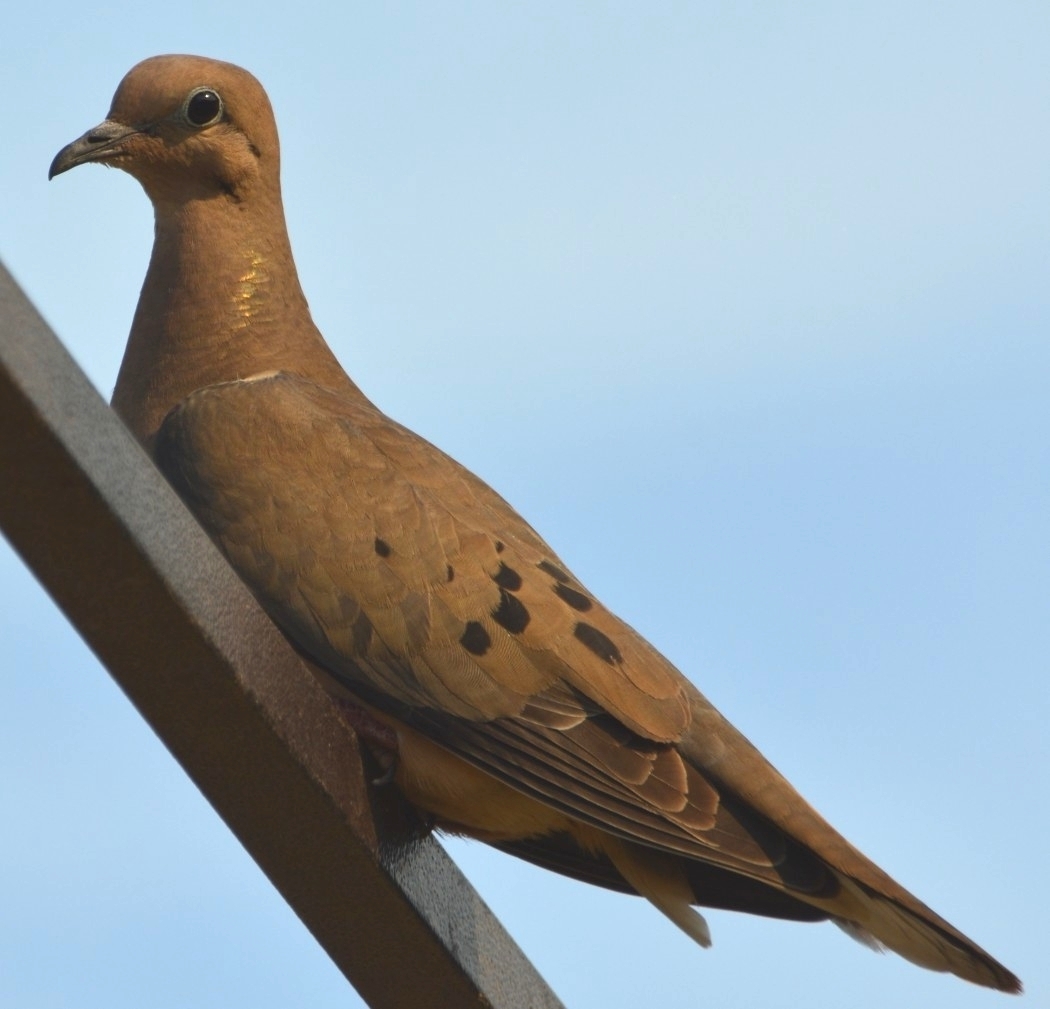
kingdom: Animalia
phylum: Chordata
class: Aves
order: Columbiformes
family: Columbidae
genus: Zenaida
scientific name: Zenaida auriculata
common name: Eared dove
